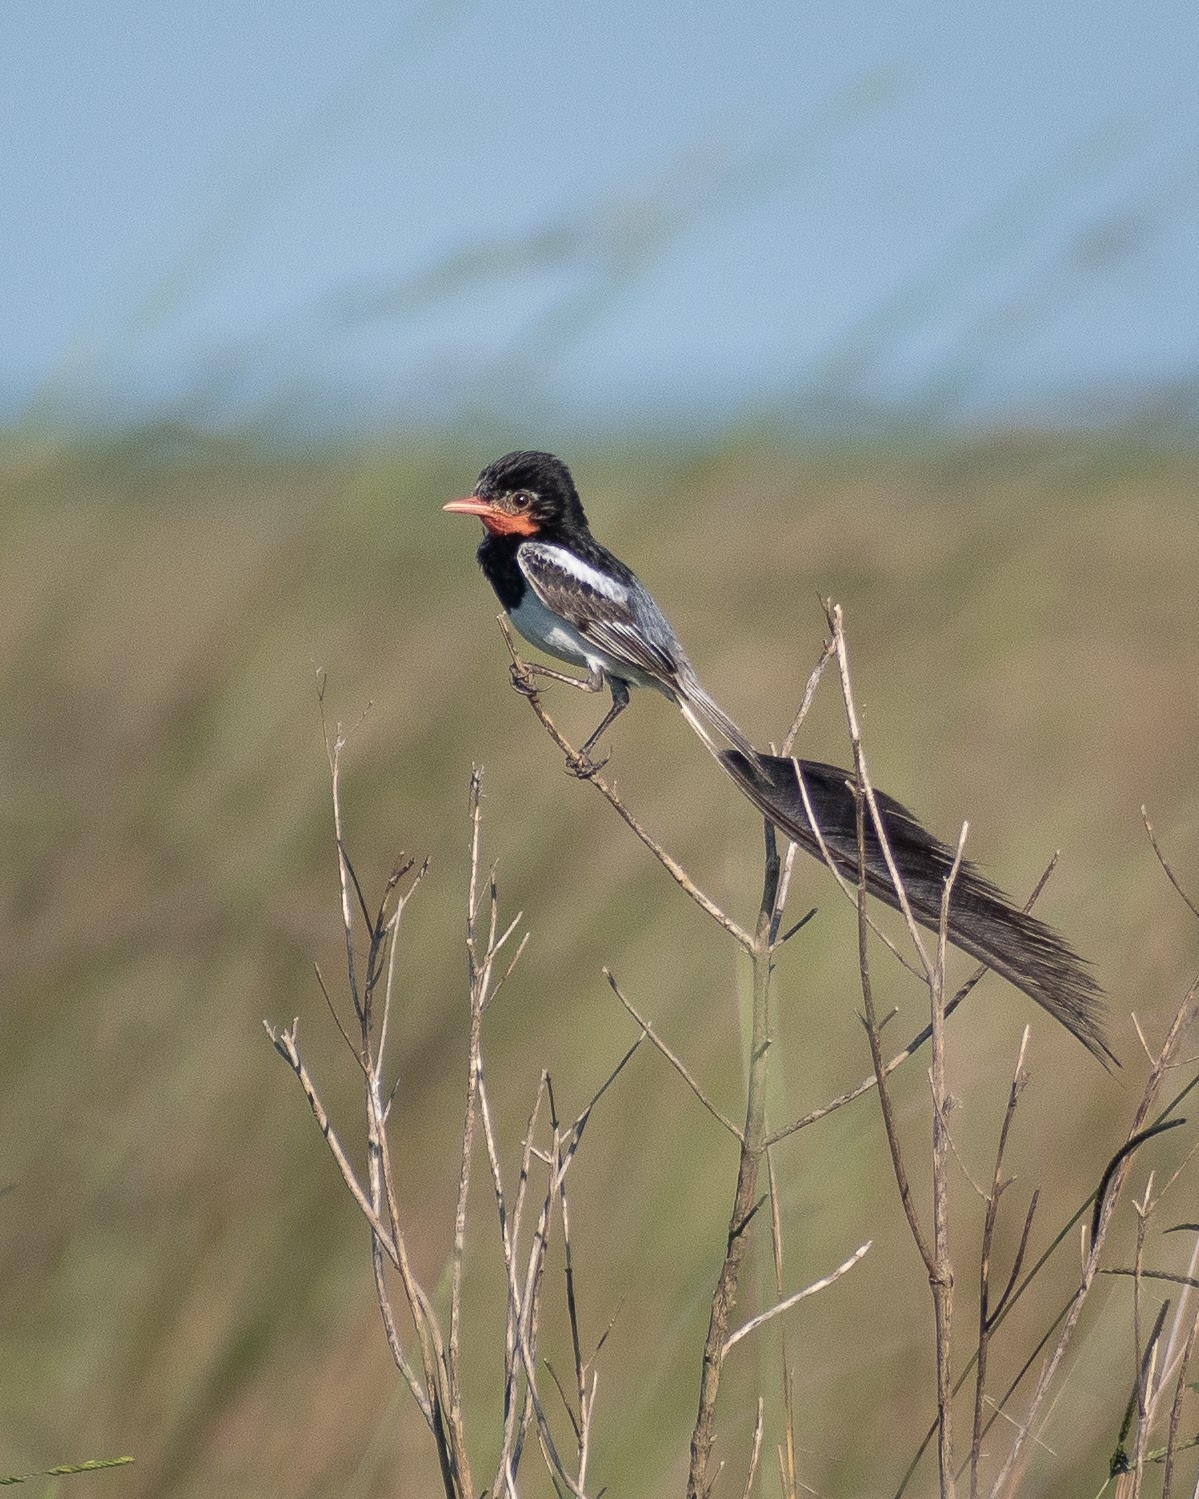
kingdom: Animalia
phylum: Chordata
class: Aves
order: Passeriformes
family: Tyrannidae
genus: Alectrurus
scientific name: Alectrurus risora
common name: Strange-tailed tyrant
